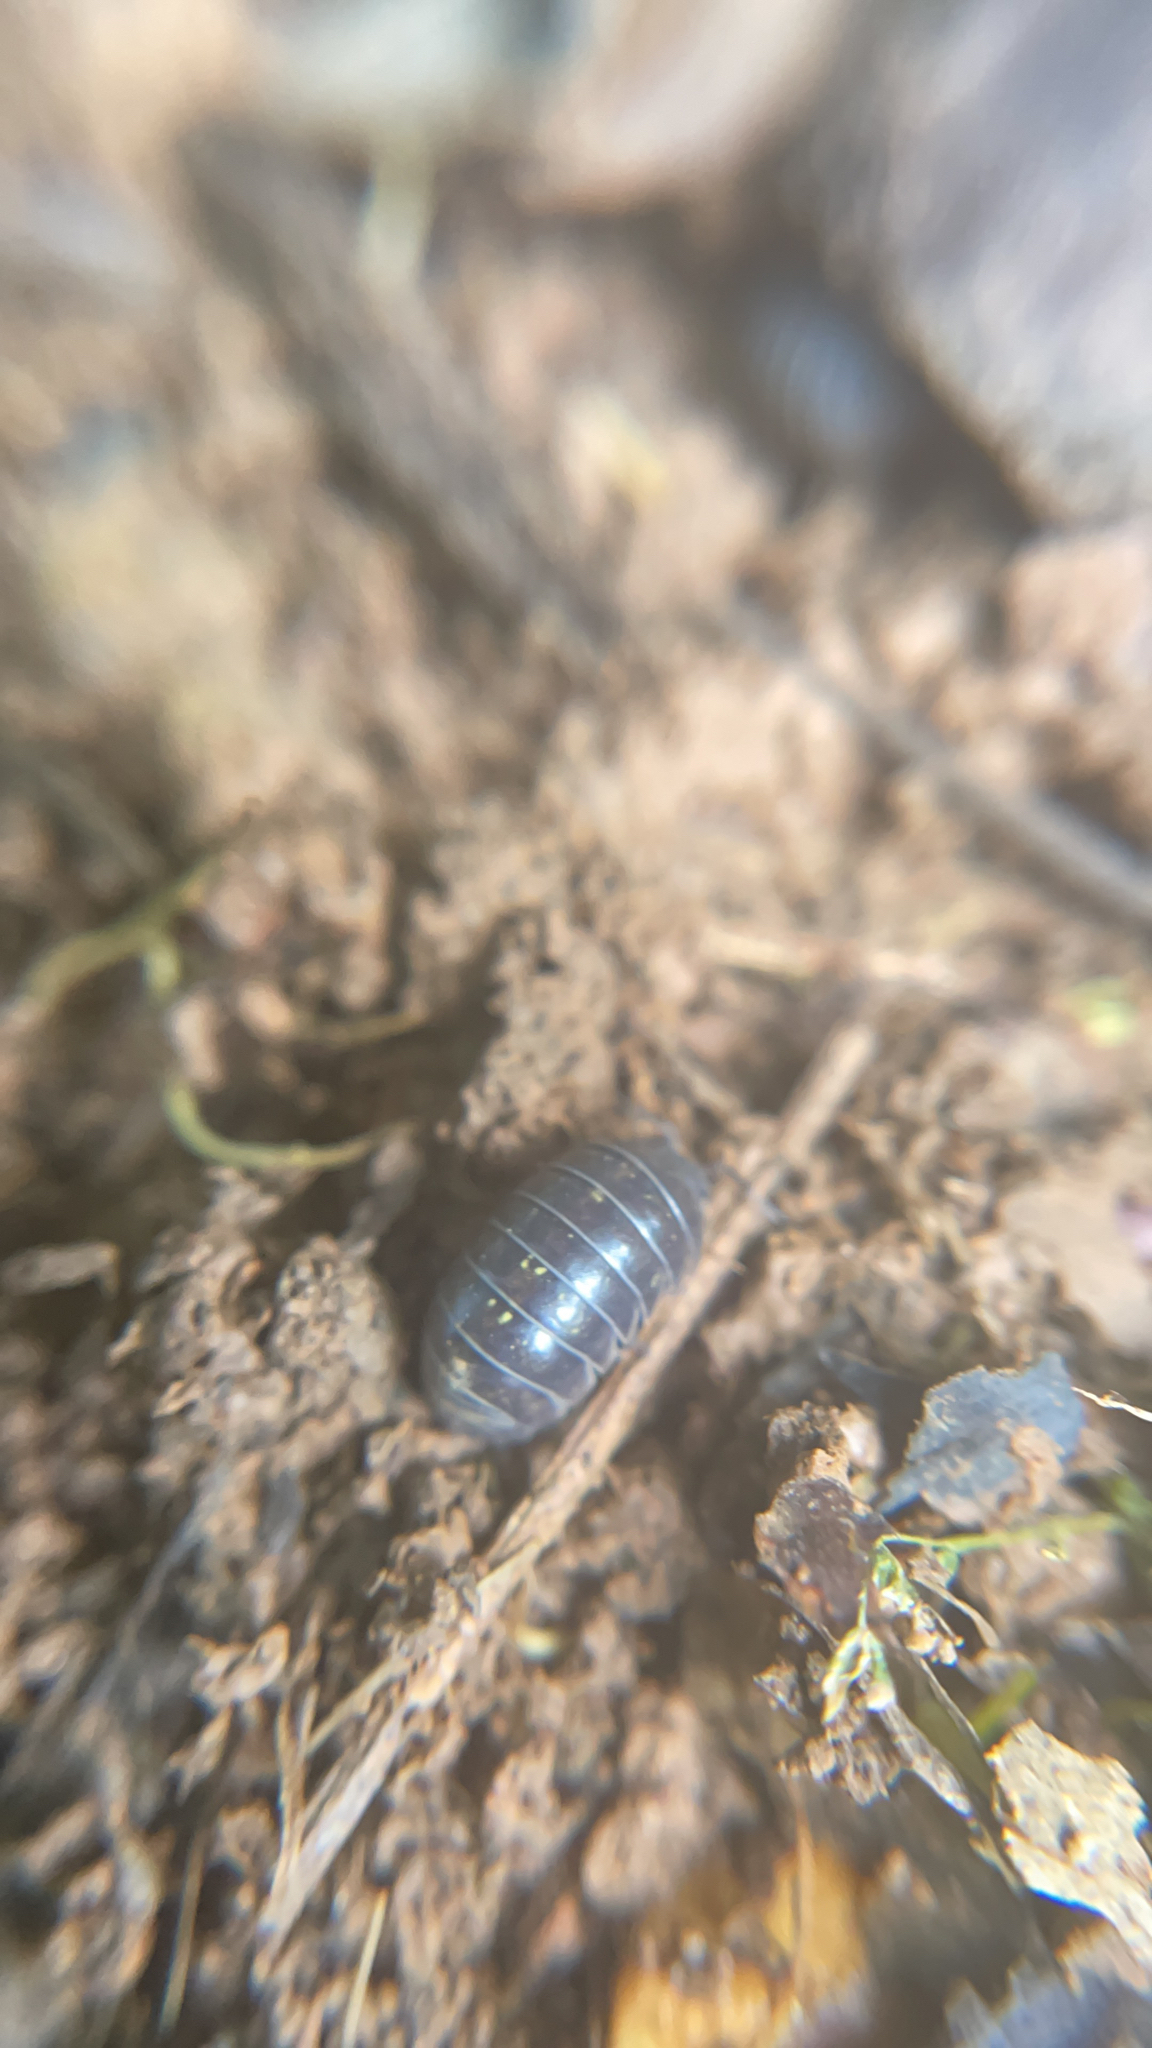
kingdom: Animalia
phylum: Arthropoda
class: Malacostraca
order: Isopoda
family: Armadillidiidae
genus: Armadillidium
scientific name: Armadillidium vulgare
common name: Common pill woodlouse
